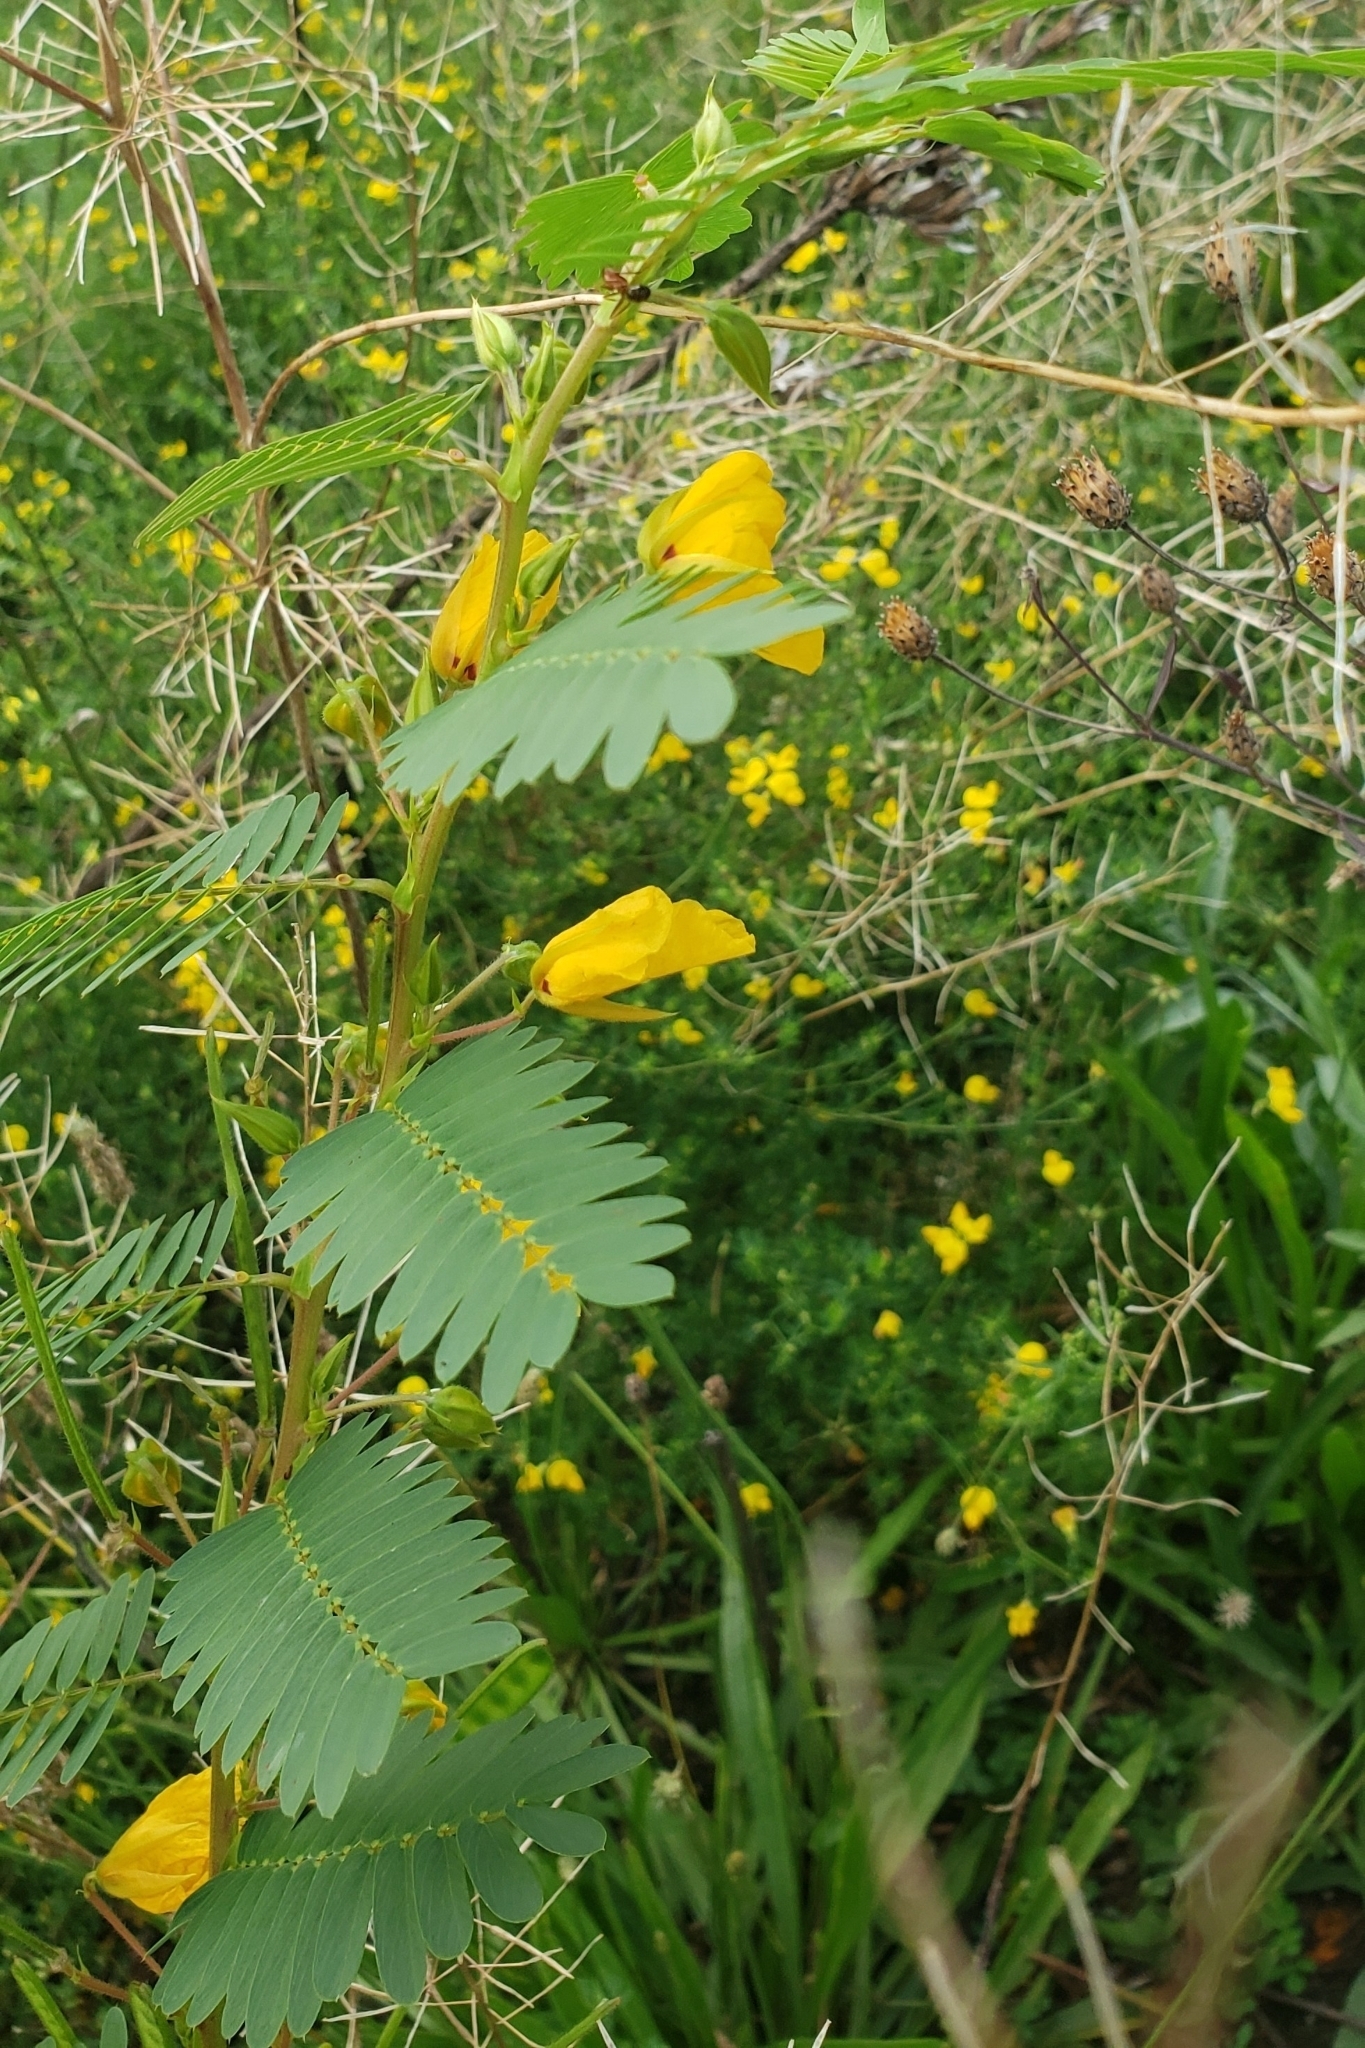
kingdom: Plantae
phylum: Tracheophyta
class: Magnoliopsida
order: Fabales
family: Fabaceae
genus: Chamaecrista
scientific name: Chamaecrista fasciculata
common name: Golden cassia
